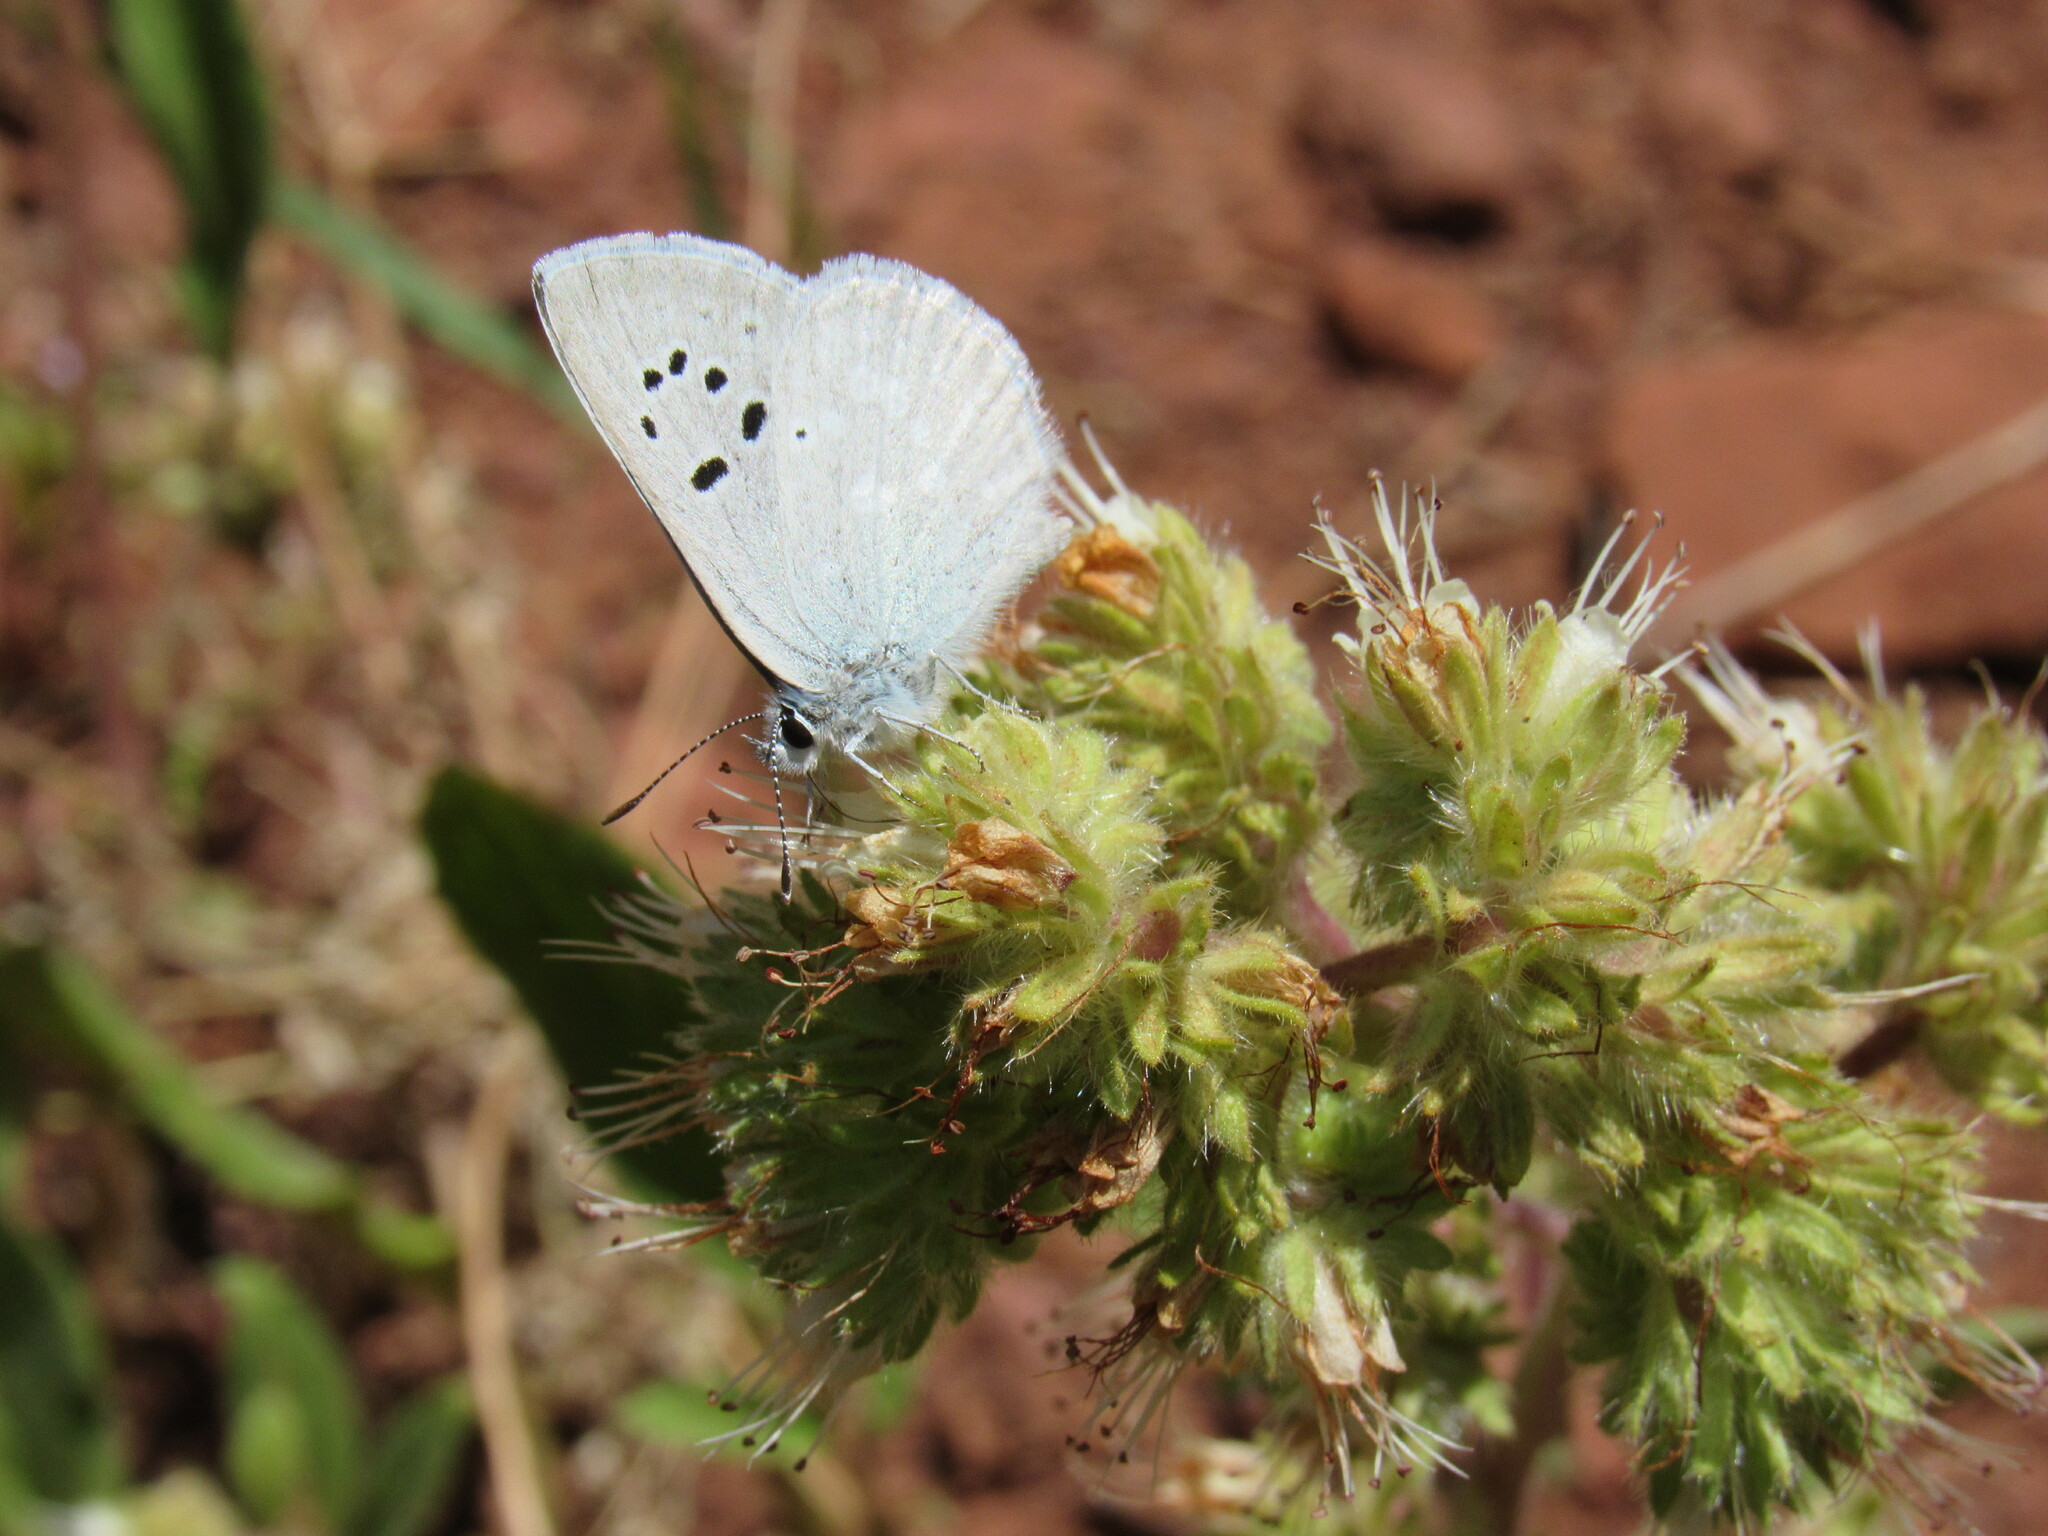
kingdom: Animalia
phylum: Arthropoda
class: Insecta
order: Lepidoptera
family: Lycaenidae
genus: Icaricia
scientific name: Icaricia icarioides
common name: Boisduval's blue
